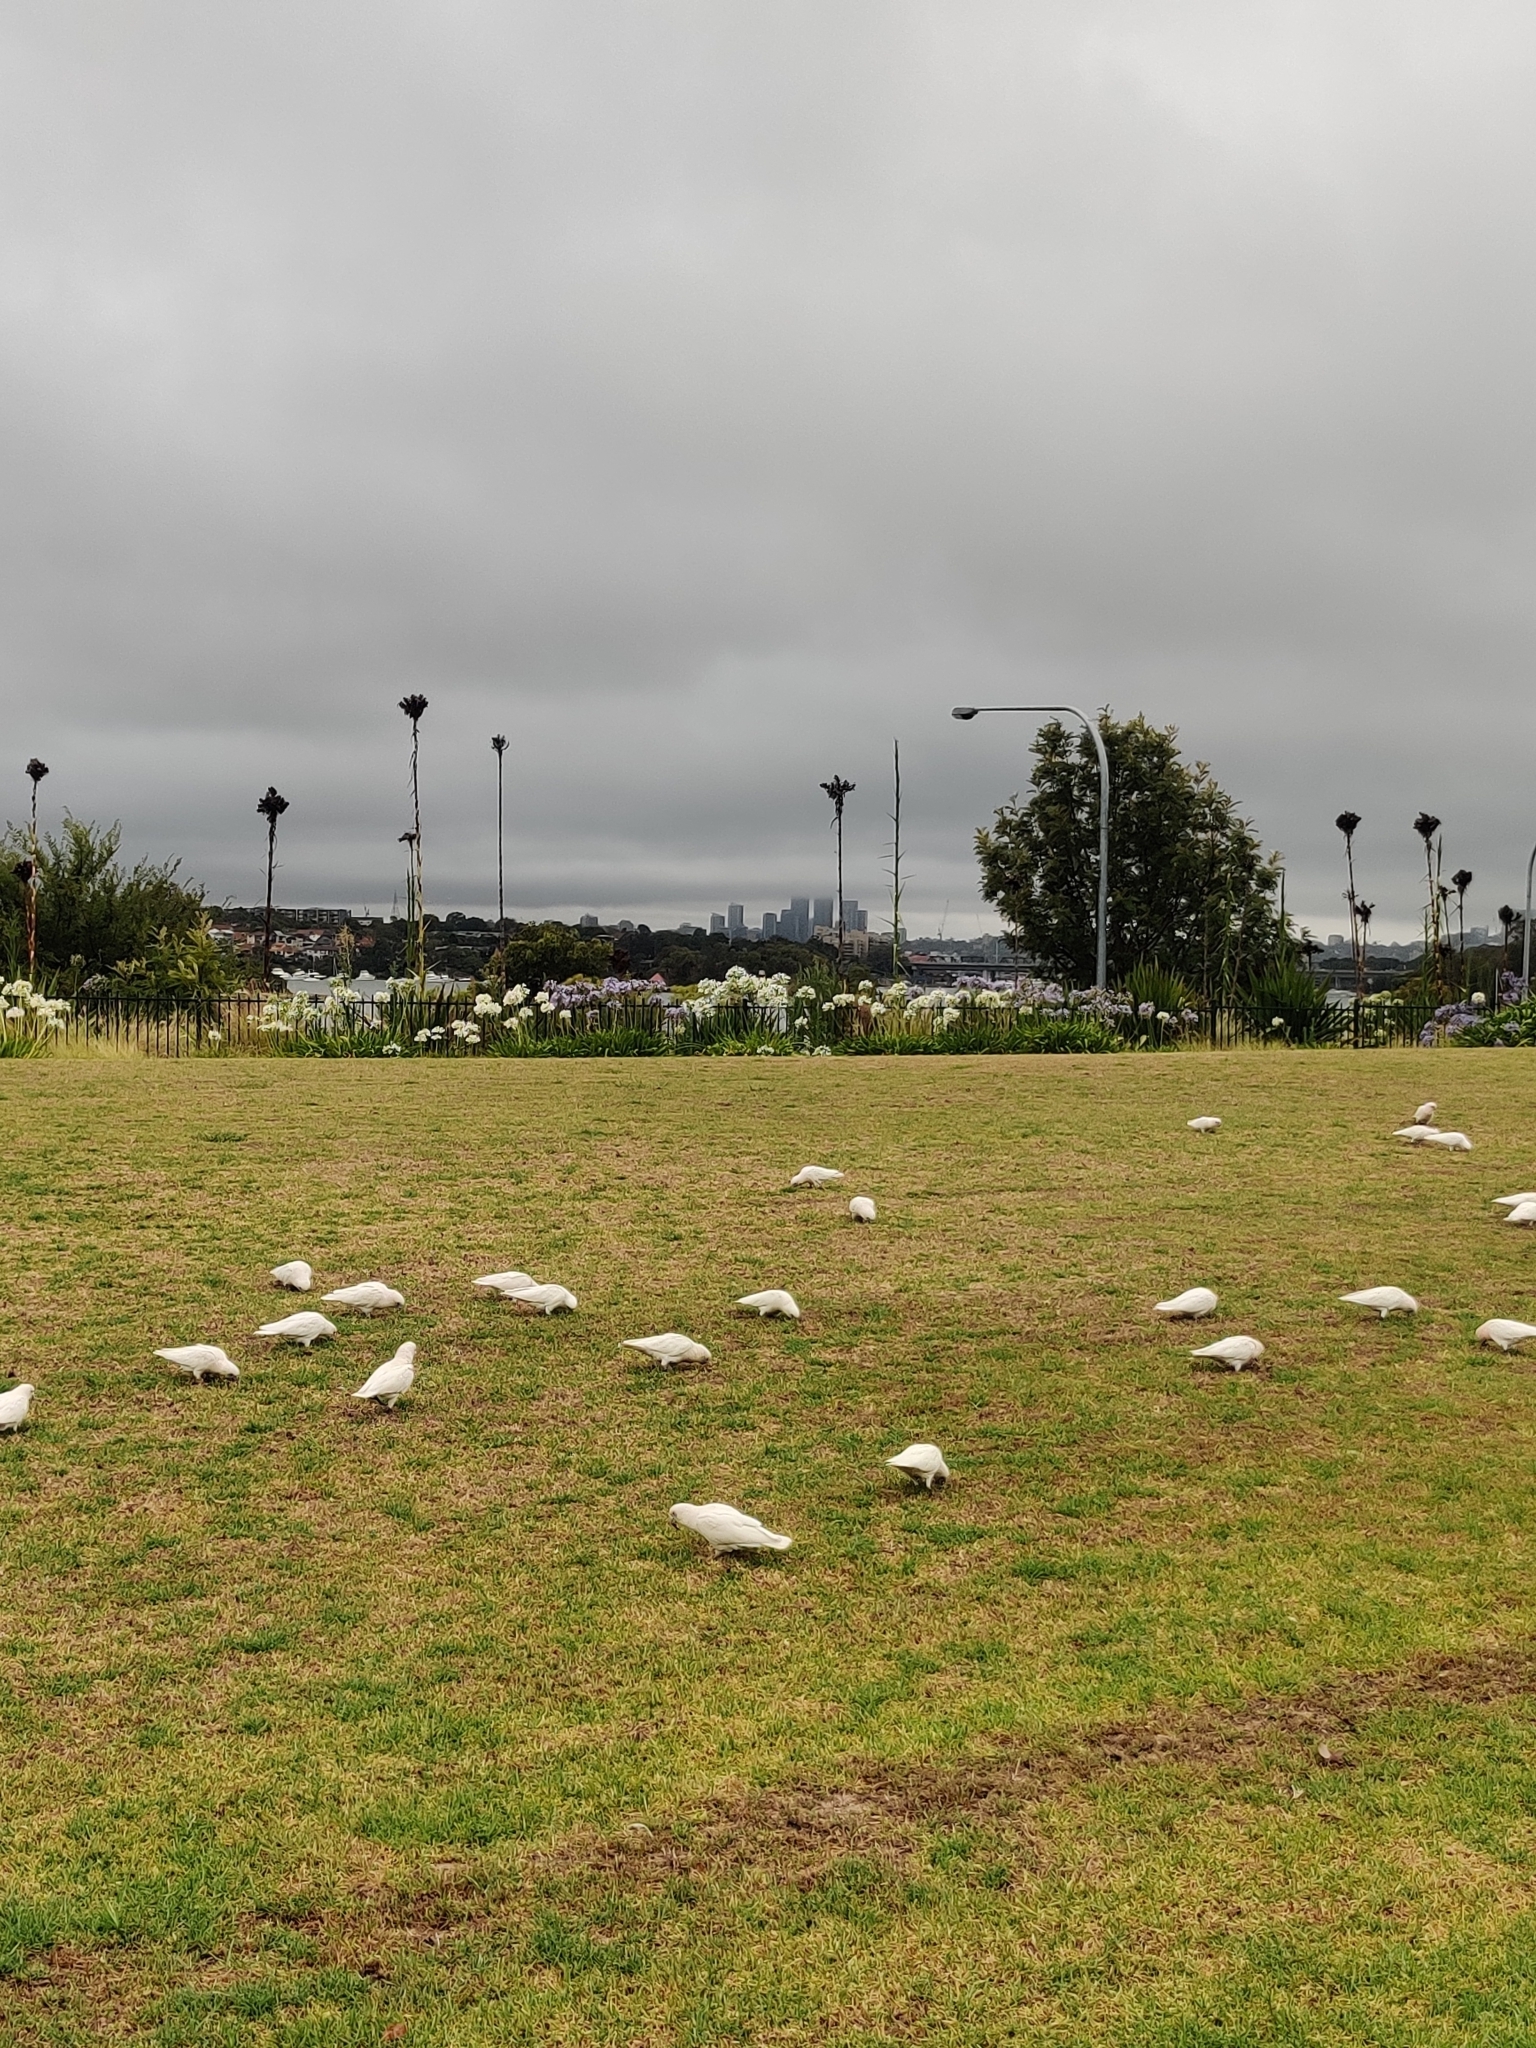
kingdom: Animalia
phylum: Chordata
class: Aves
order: Psittaciformes
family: Psittacidae
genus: Cacatua
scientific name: Cacatua sanguinea
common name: Little corella
